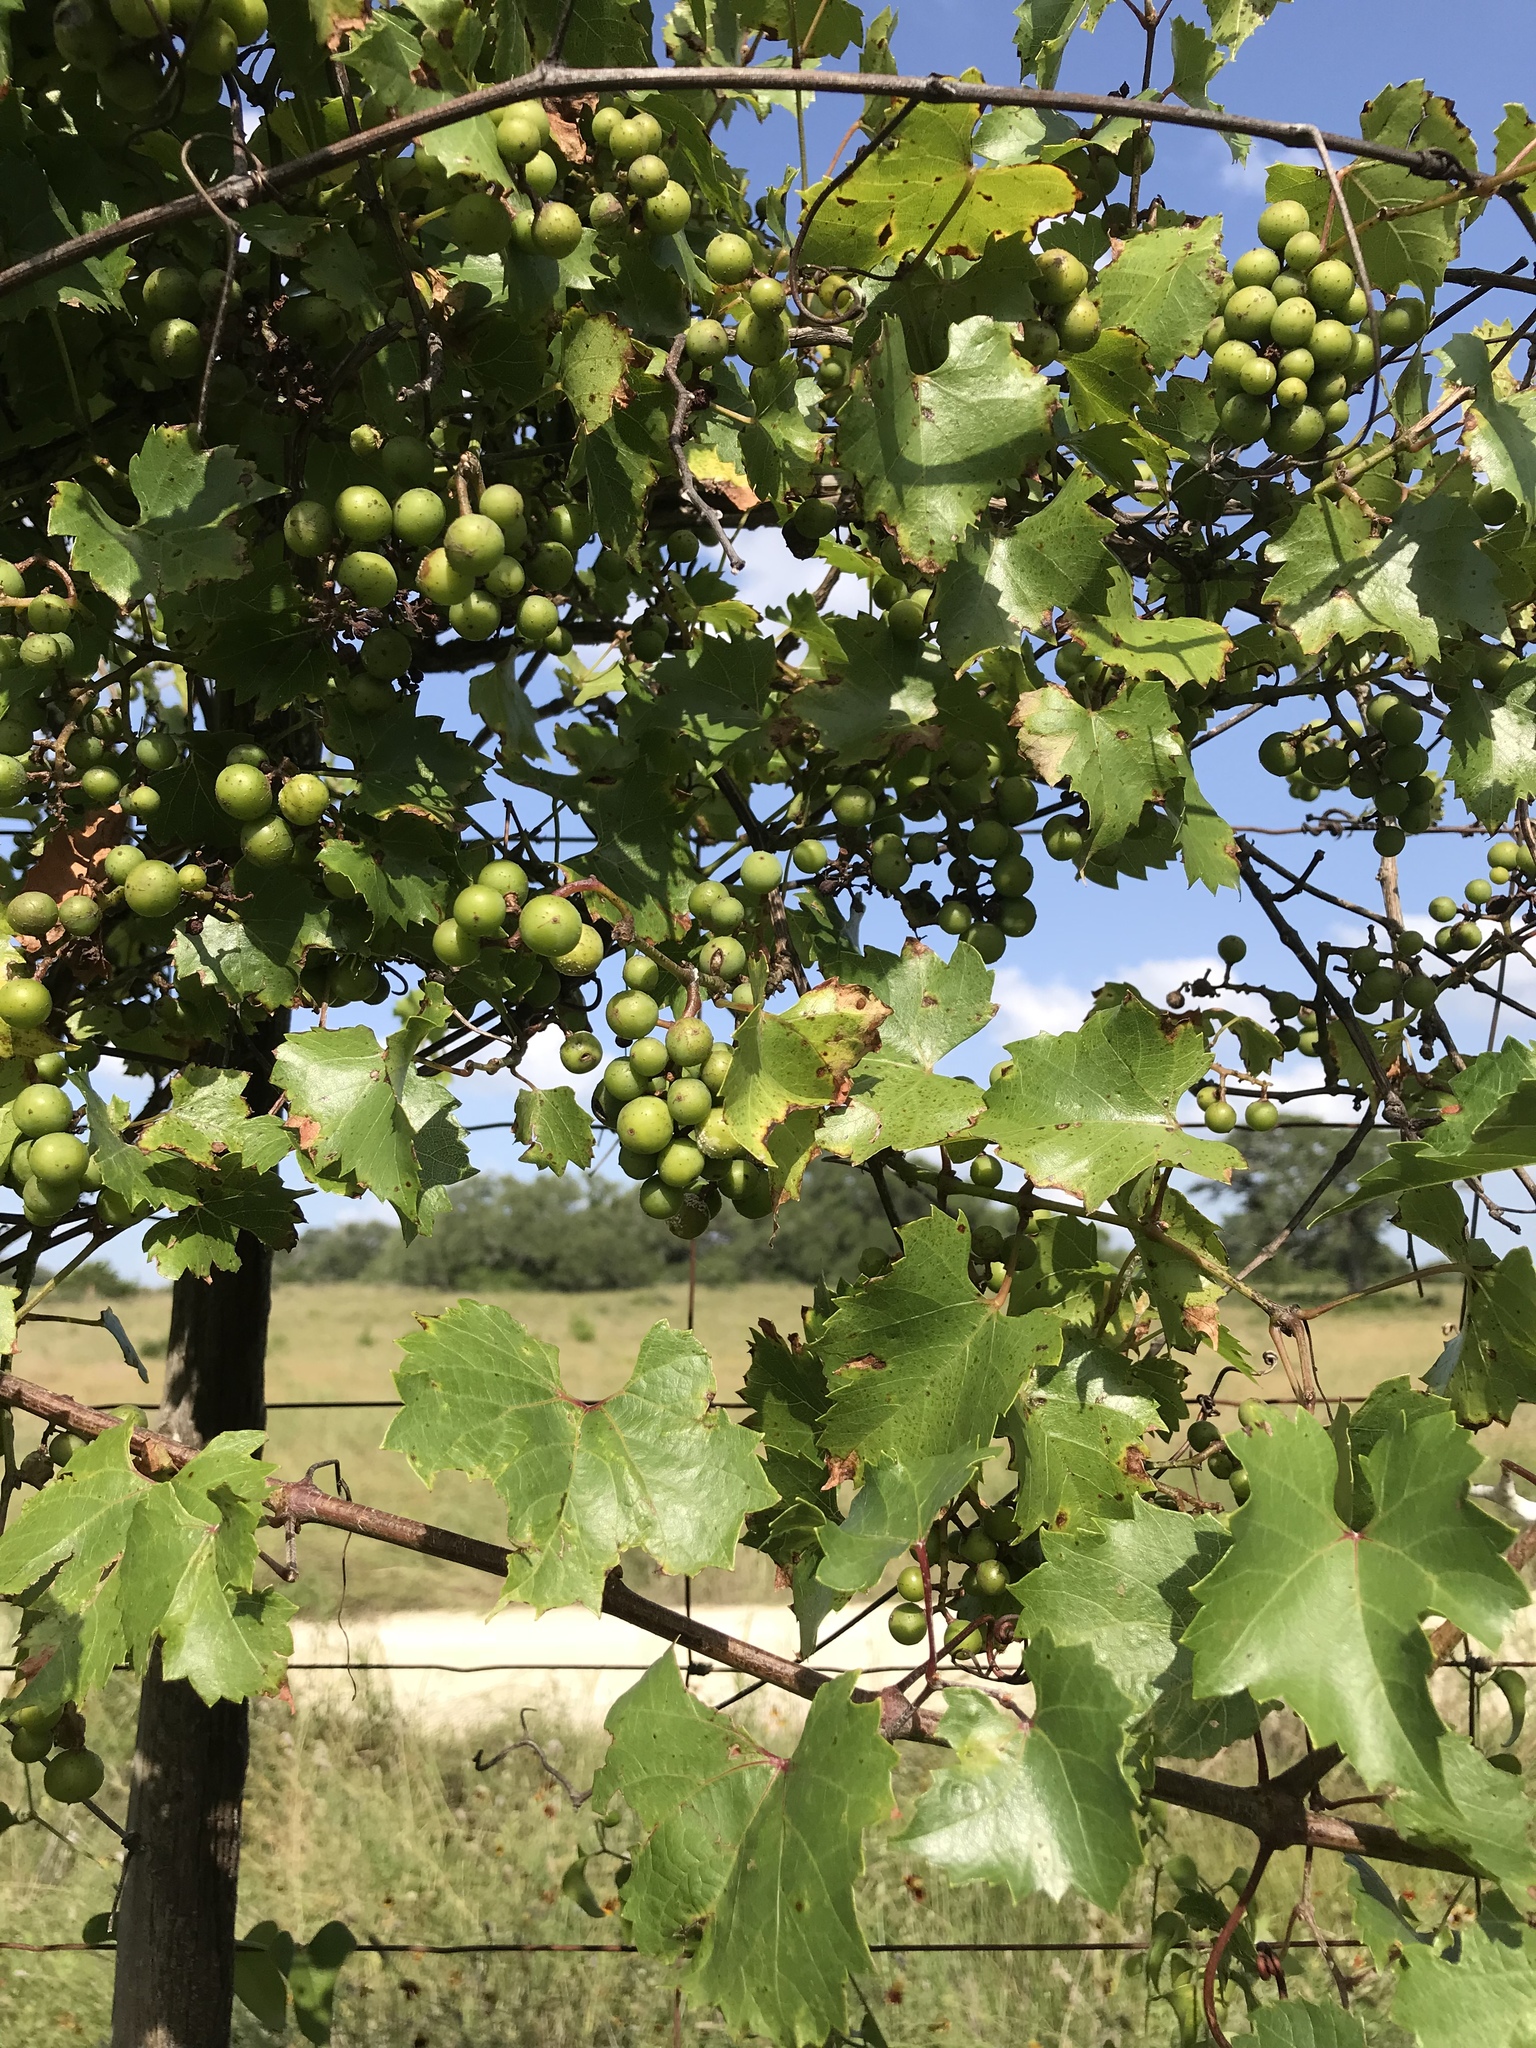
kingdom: Plantae
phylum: Tracheophyta
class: Magnoliopsida
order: Vitales
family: Vitaceae
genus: Vitis
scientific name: Vitis monticola
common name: Mountain grape
